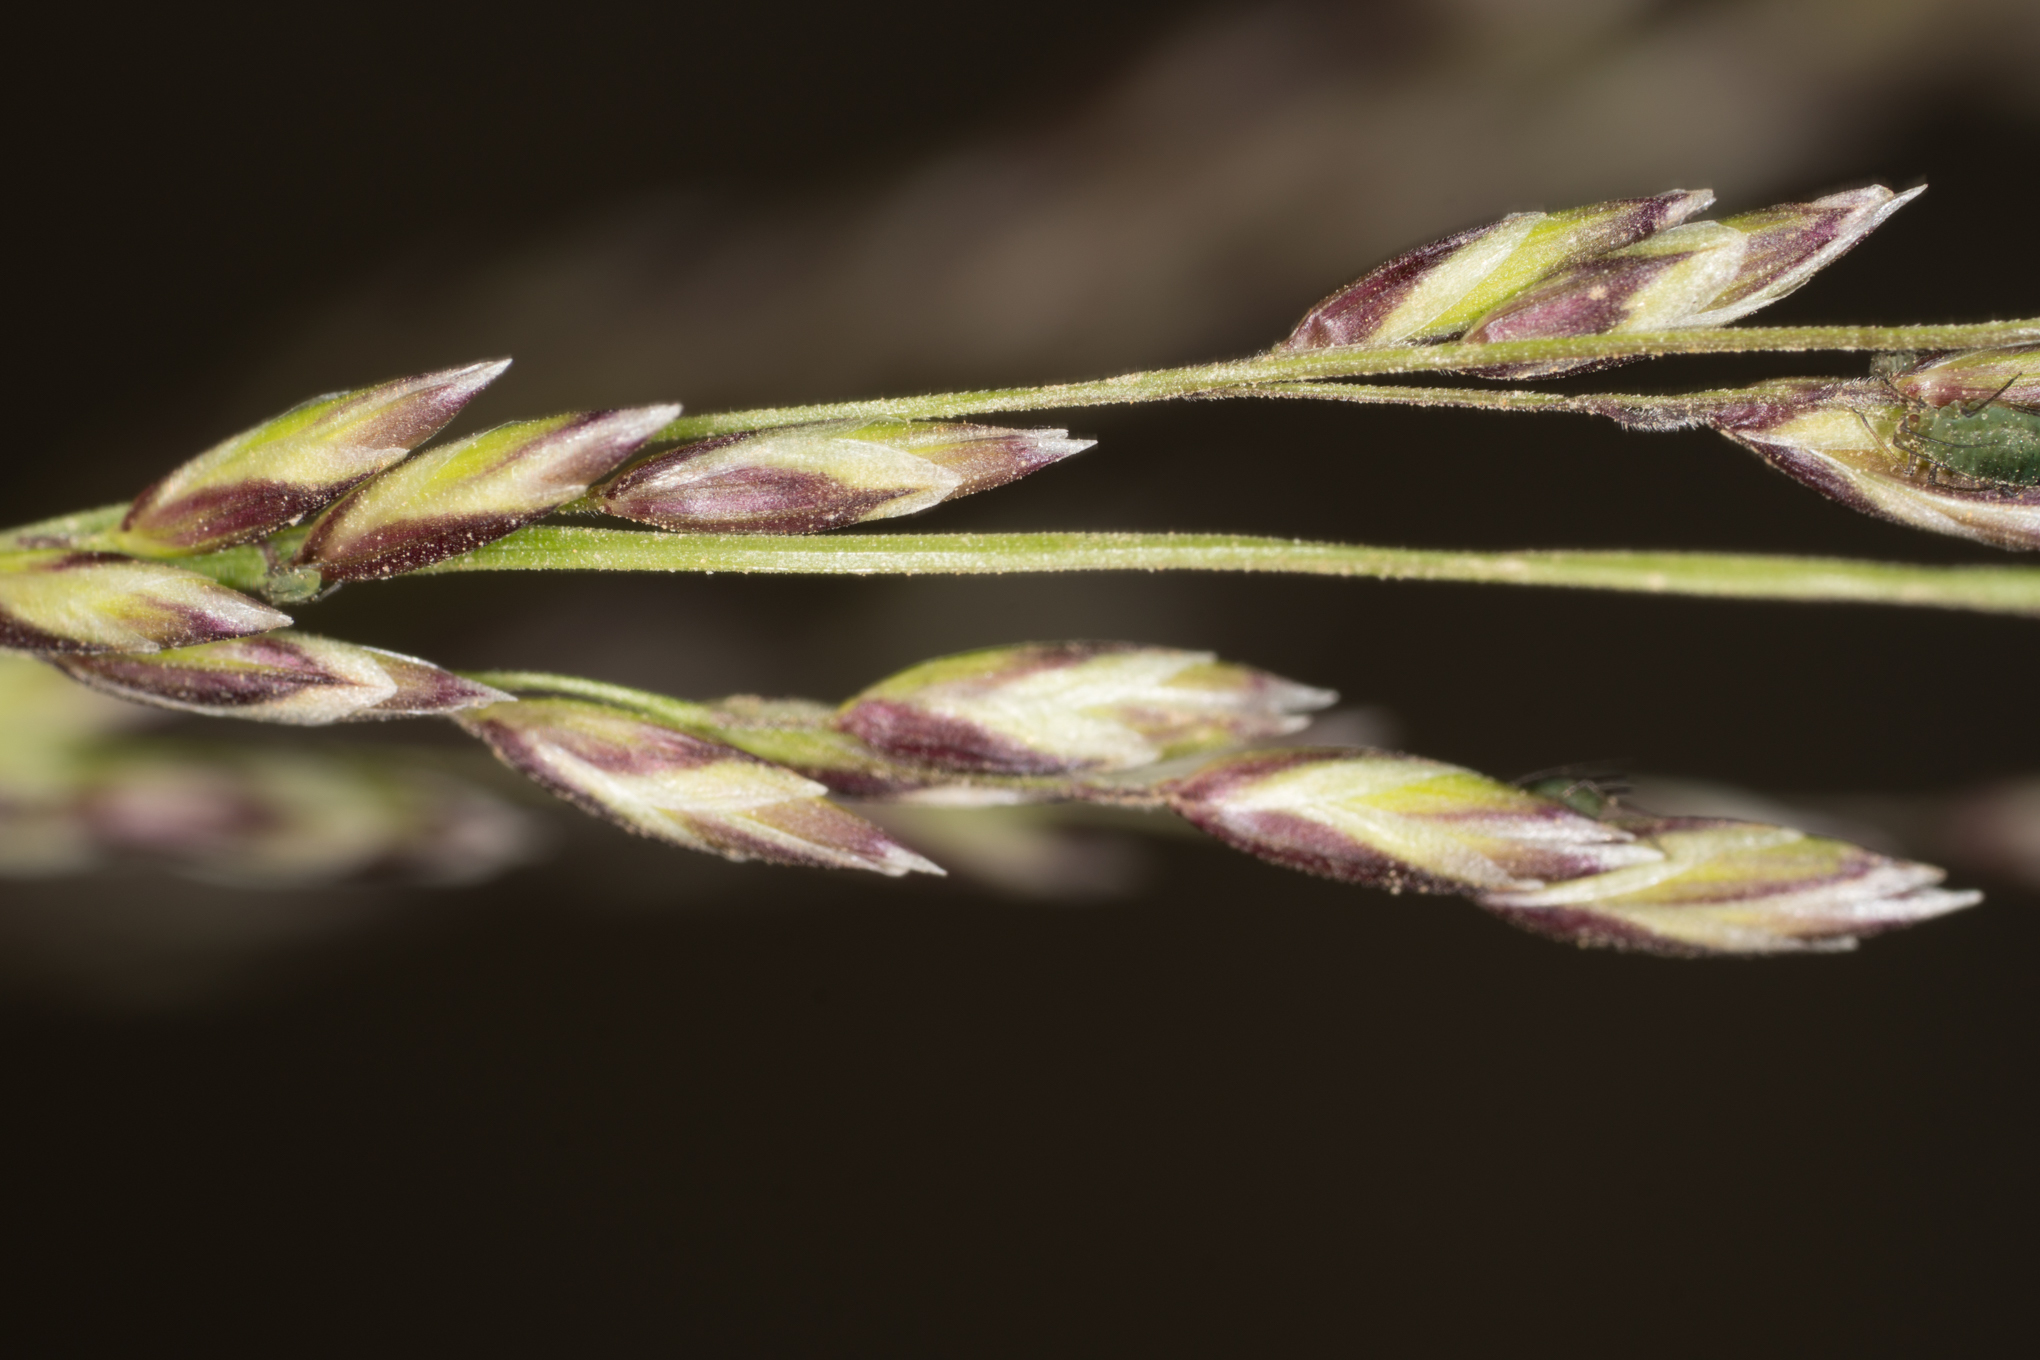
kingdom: Plantae
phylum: Tracheophyta
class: Liliopsida
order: Poales
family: Poaceae
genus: Melica
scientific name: Melica imperfecta
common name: California melic
